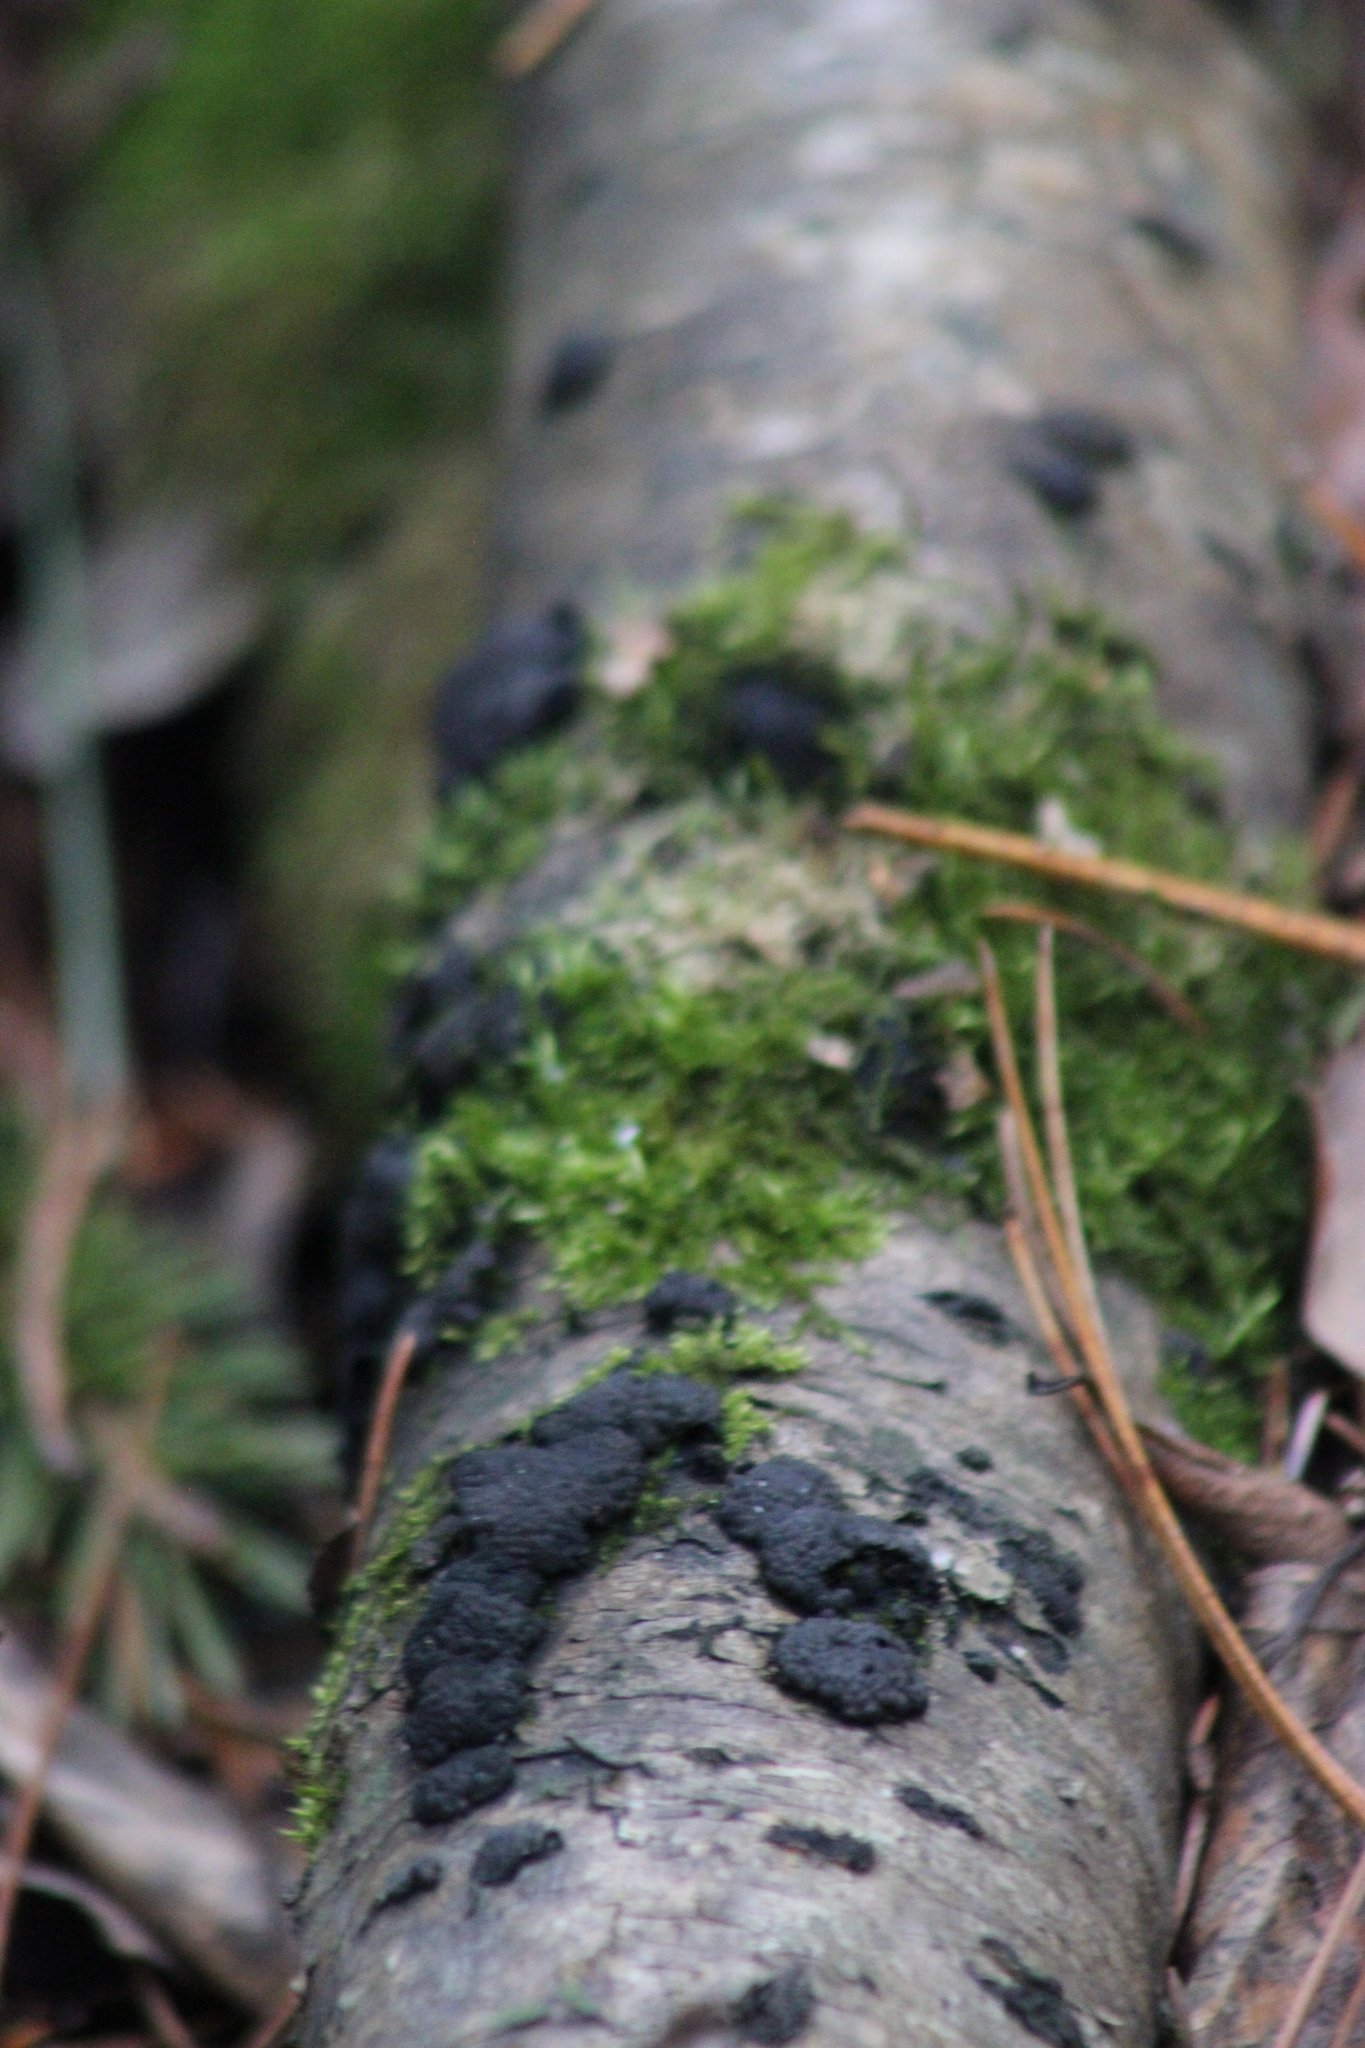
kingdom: Fungi
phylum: Ascomycota
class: Sordariomycetes
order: Xylariales
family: Hypoxylaceae
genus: Jackrogersella
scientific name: Jackrogersella multiformis
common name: Birch woodwart
